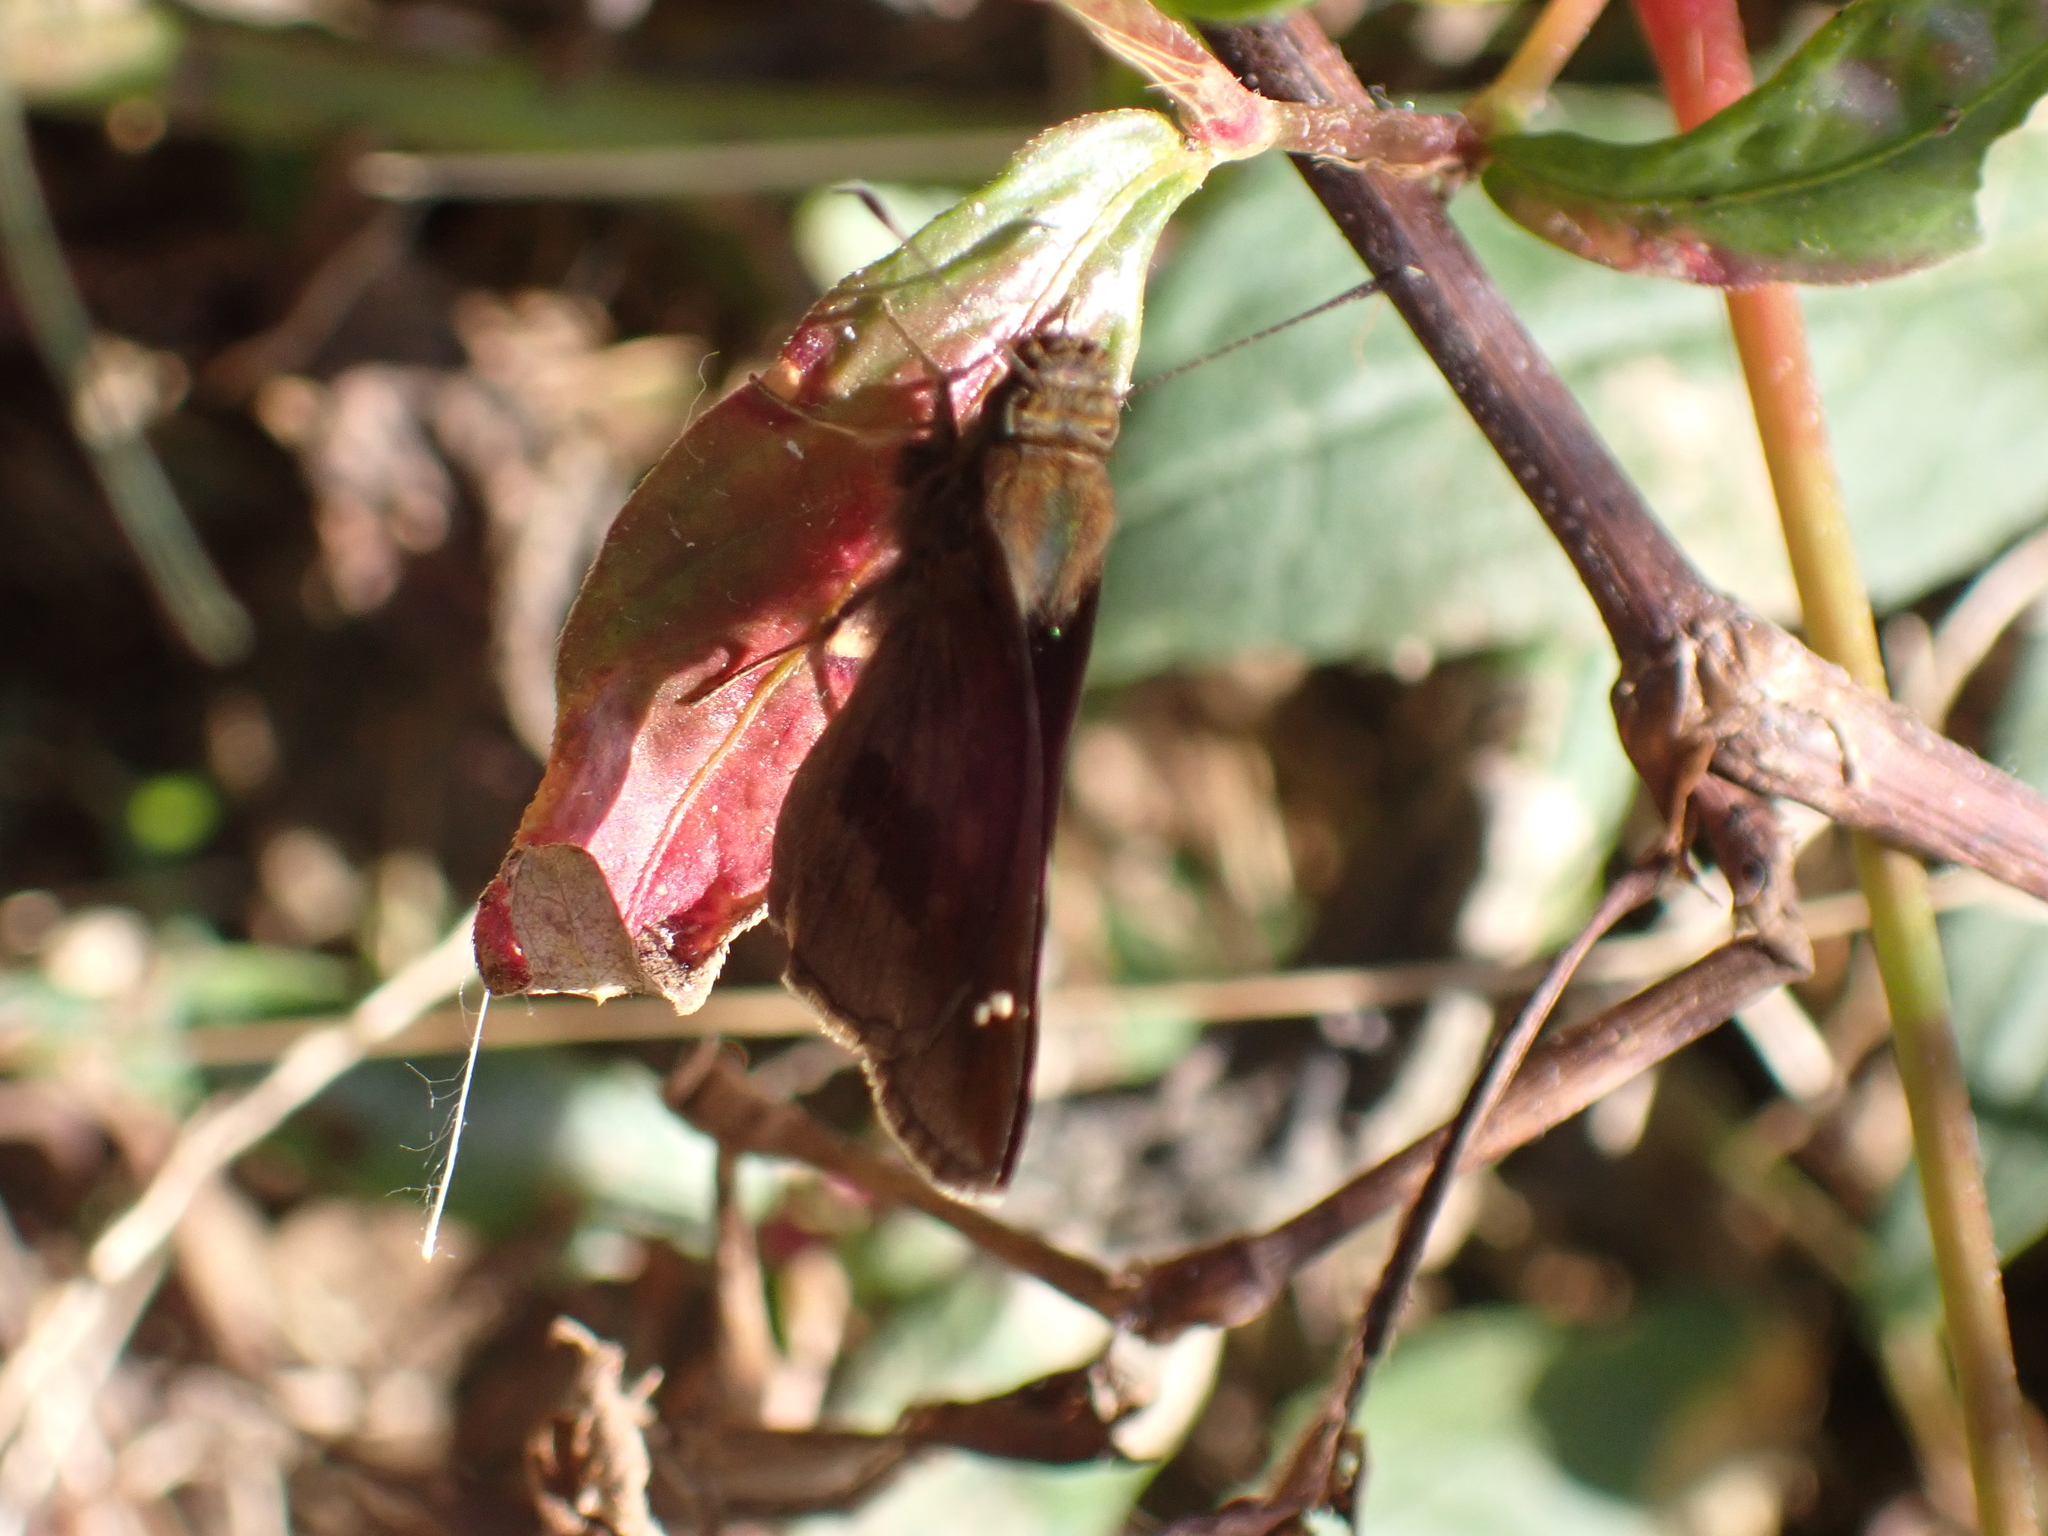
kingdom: Animalia
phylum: Arthropoda
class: Insecta
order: Lepidoptera
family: Hesperiidae
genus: Lerema
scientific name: Lerema accius
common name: Clouded skipper
